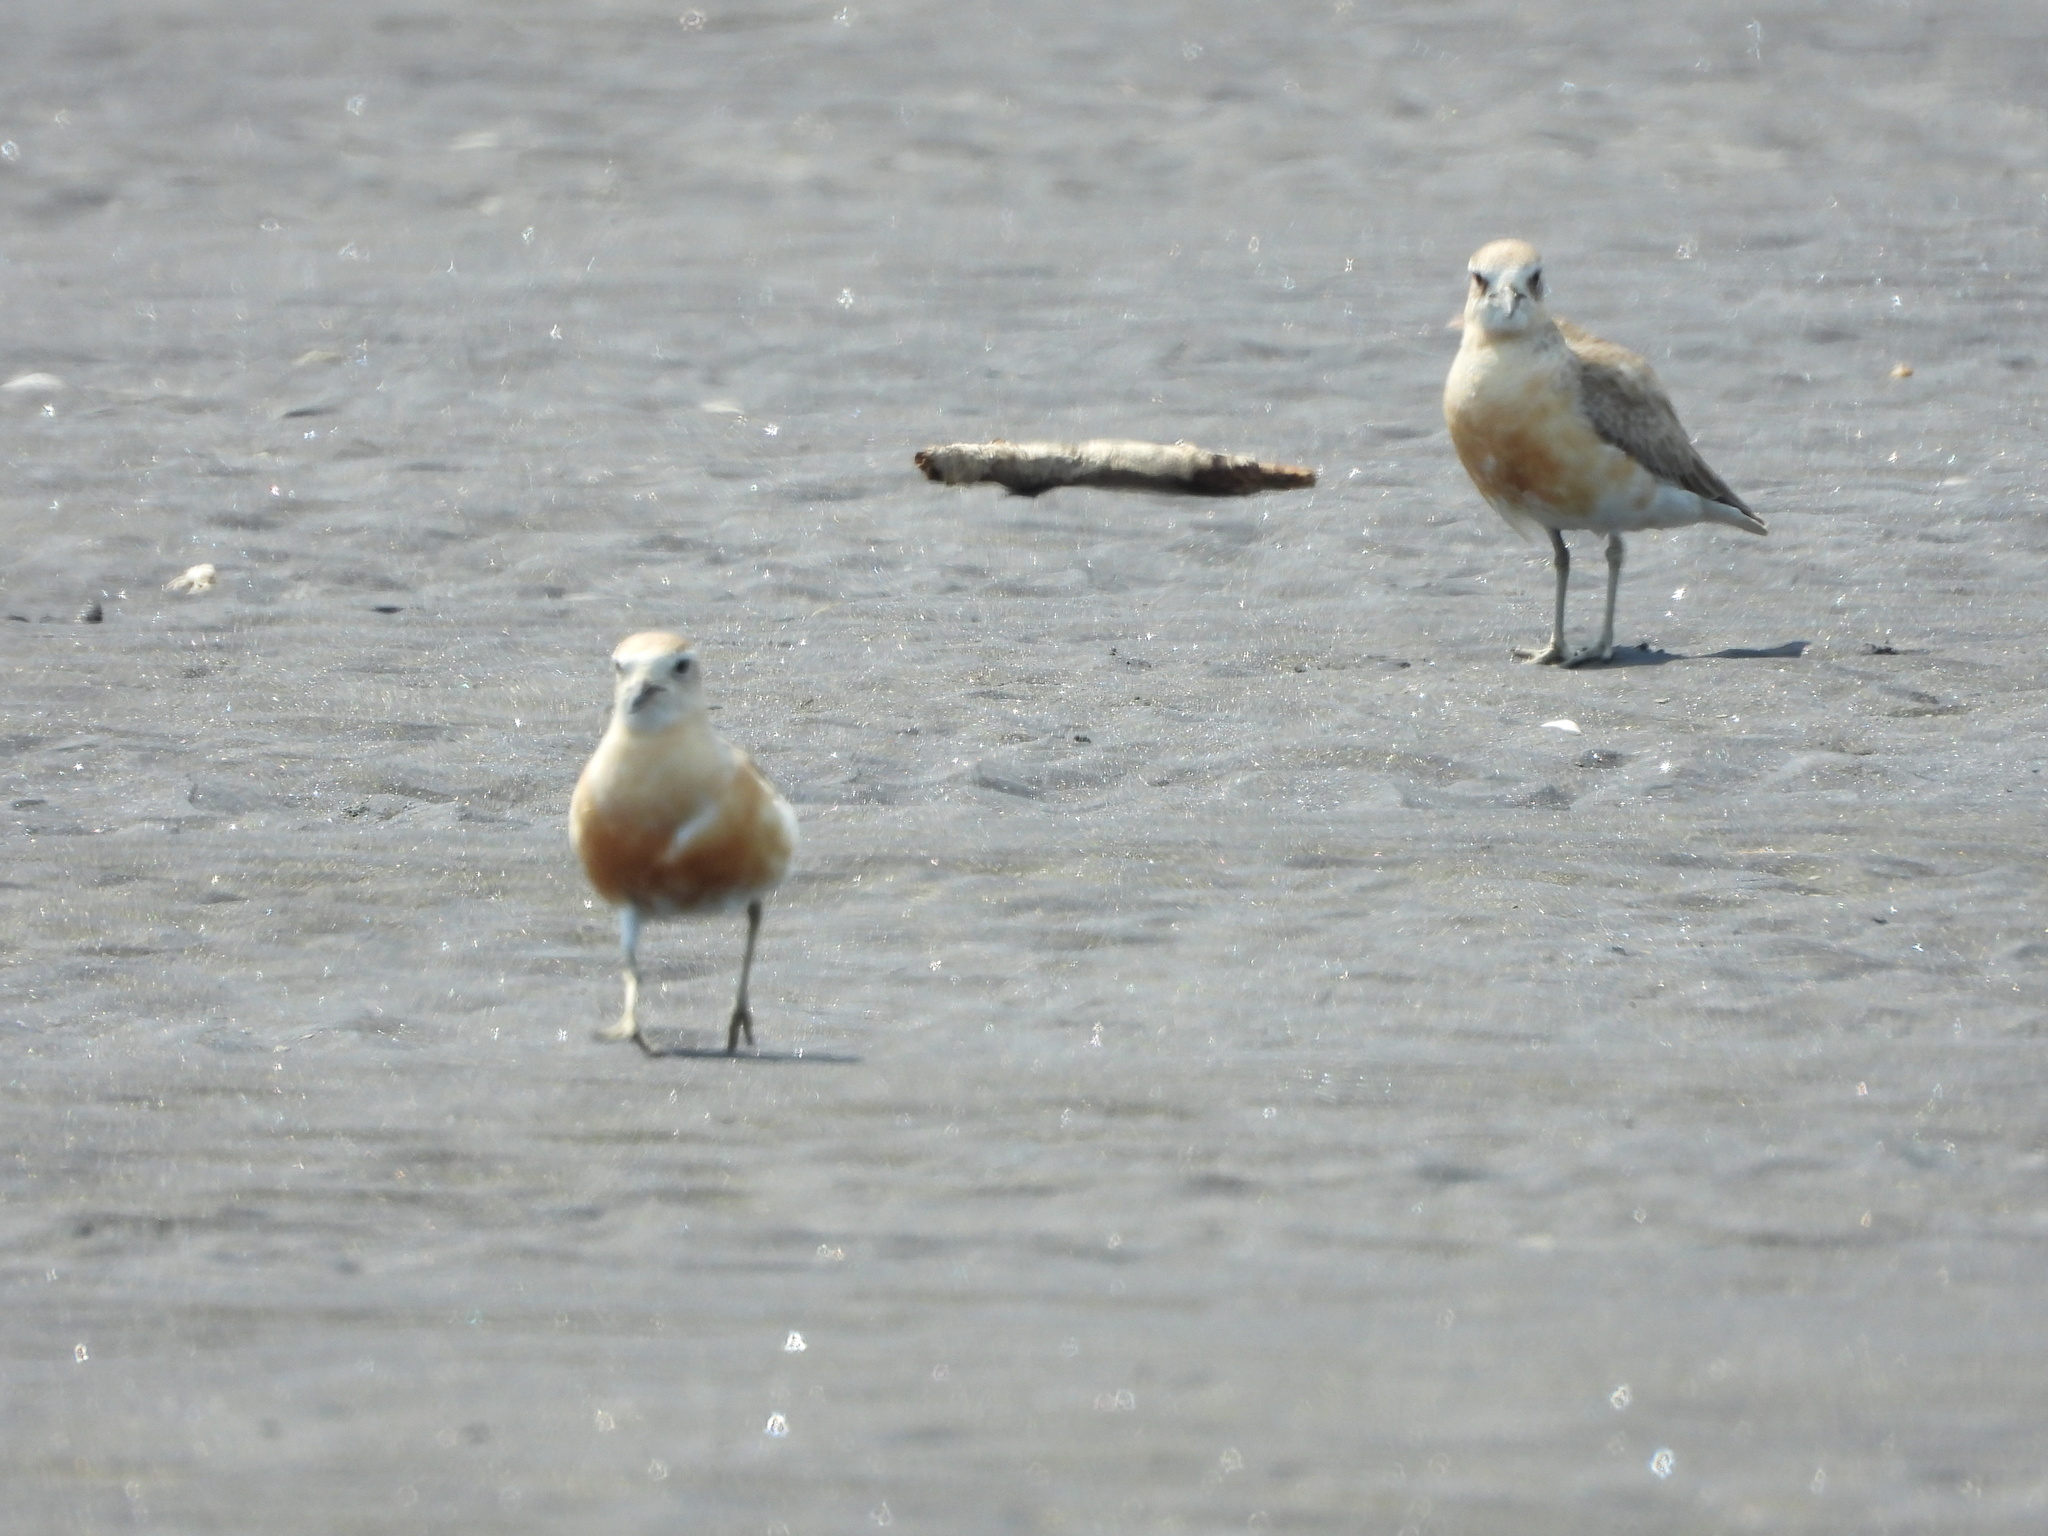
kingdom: Animalia
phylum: Chordata
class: Aves
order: Charadriiformes
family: Charadriidae
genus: Anarhynchus
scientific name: Anarhynchus
